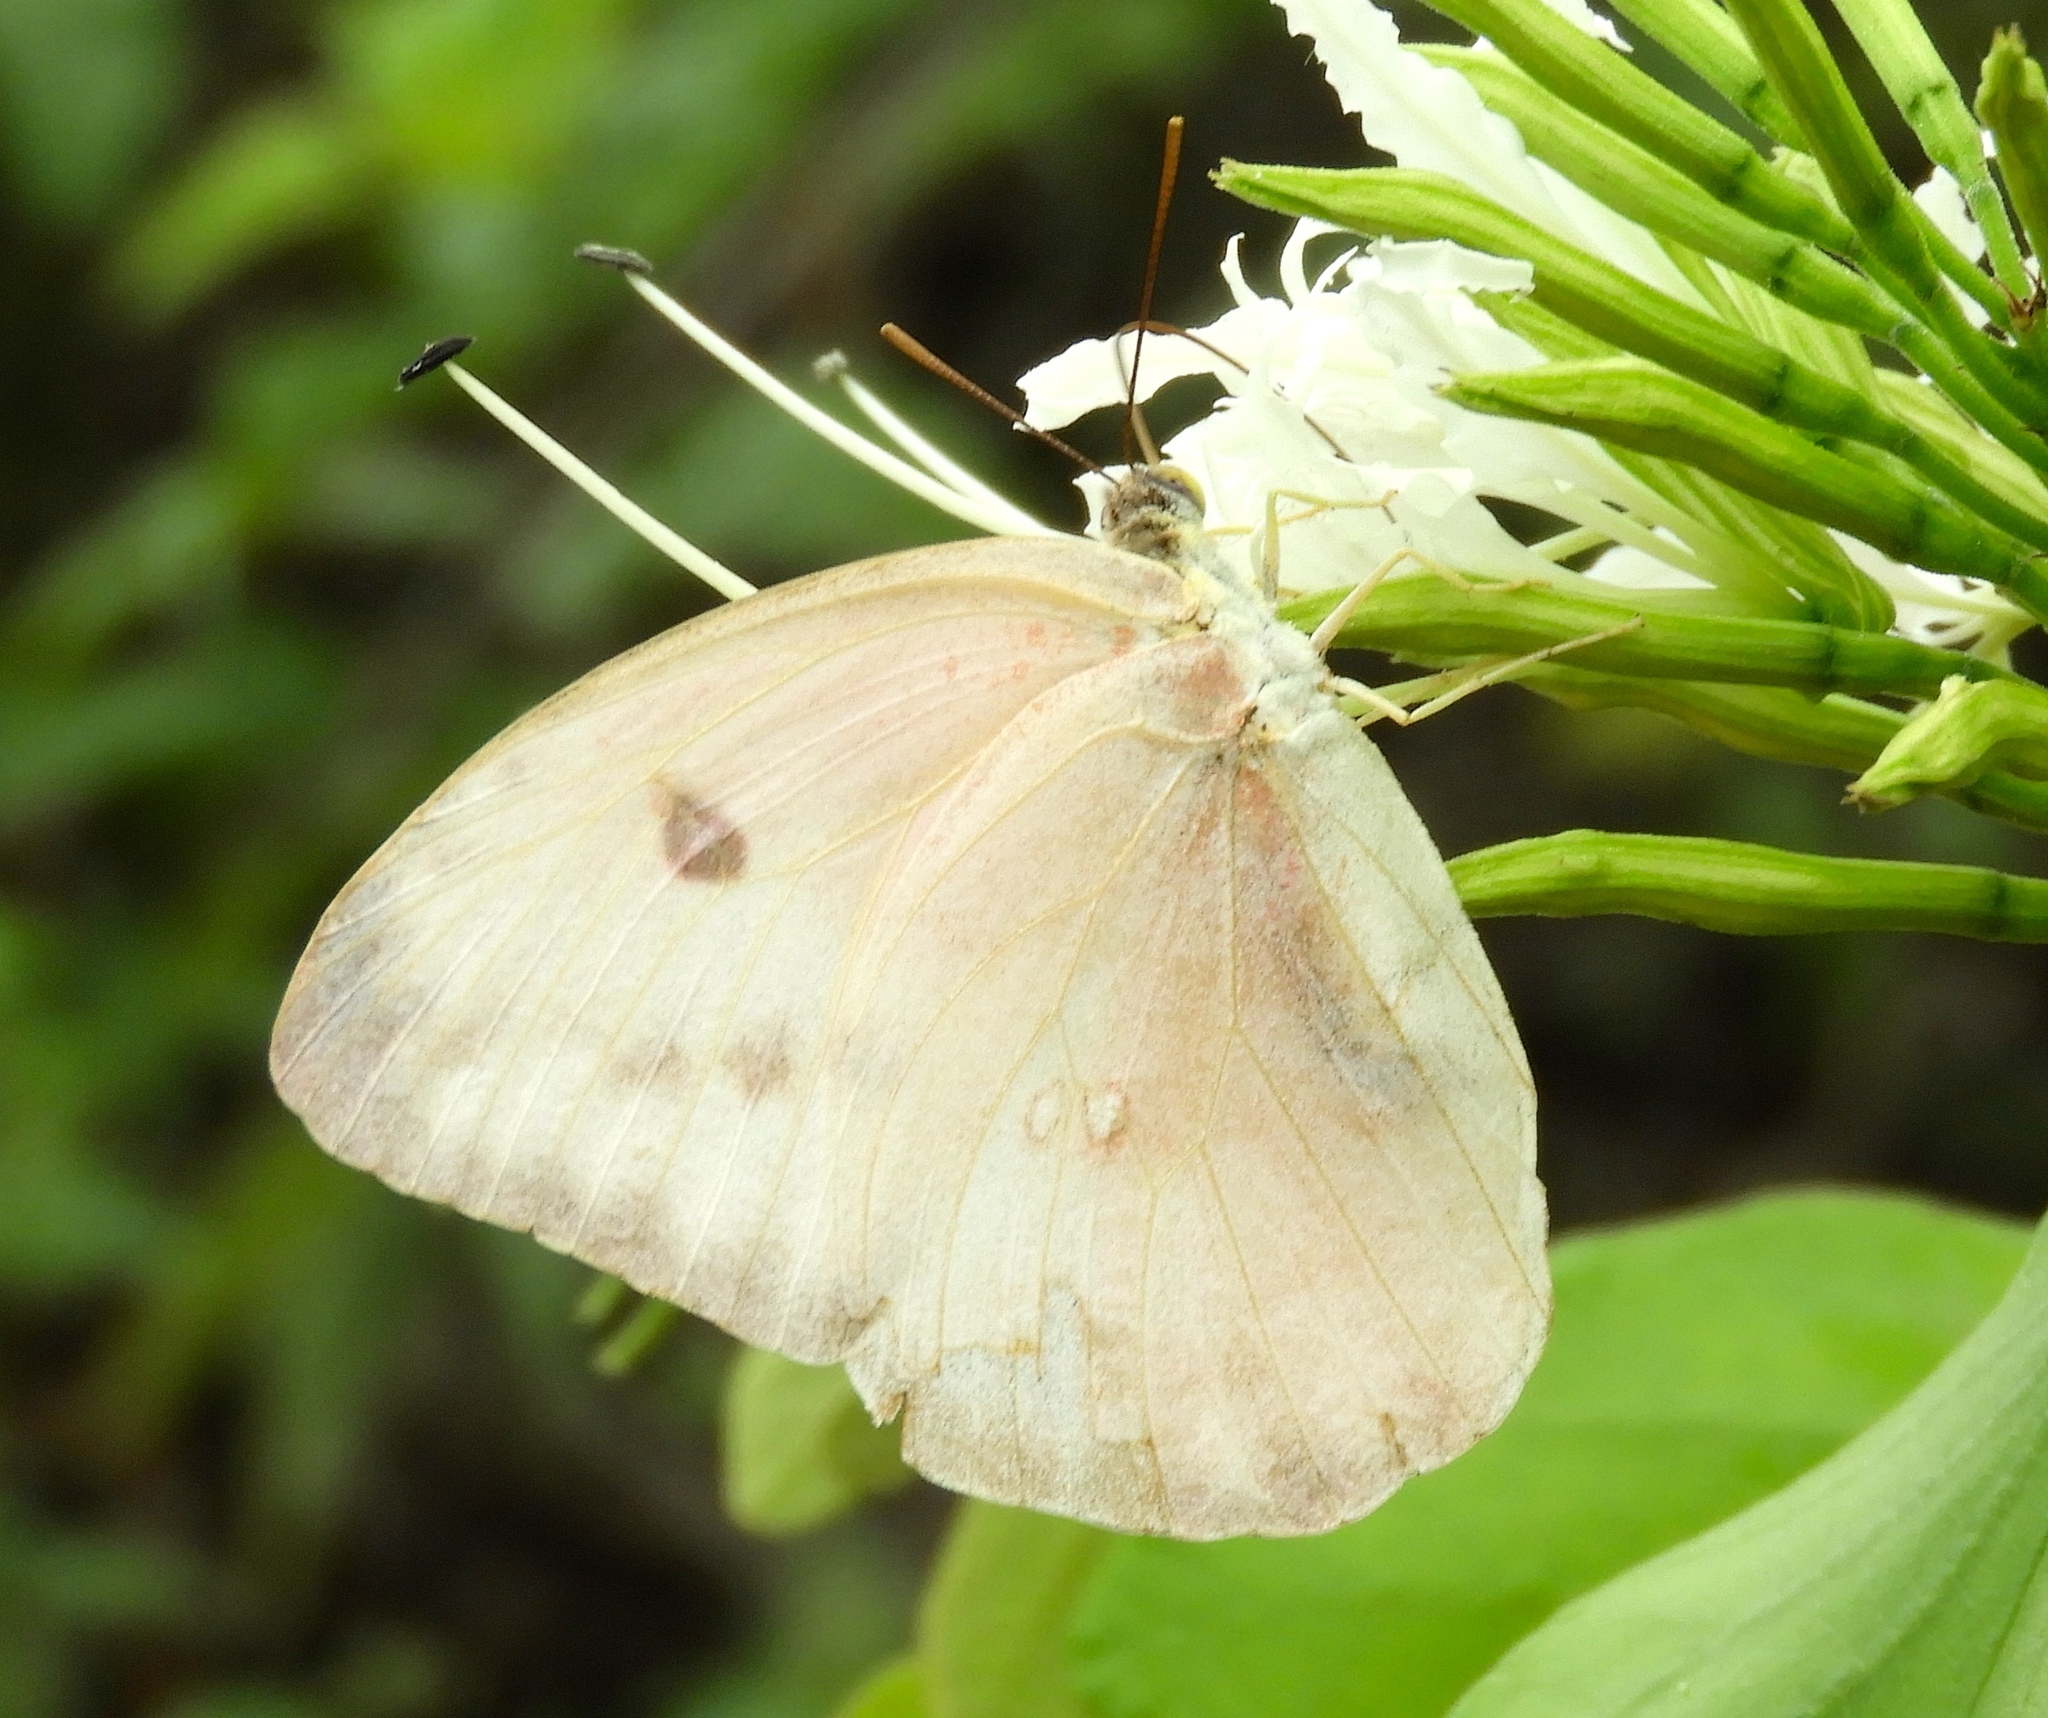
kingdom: Animalia
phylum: Arthropoda
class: Insecta
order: Lepidoptera
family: Pieridae
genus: Phoebis
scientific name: Phoebis agarithe
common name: Large orange sulphur
